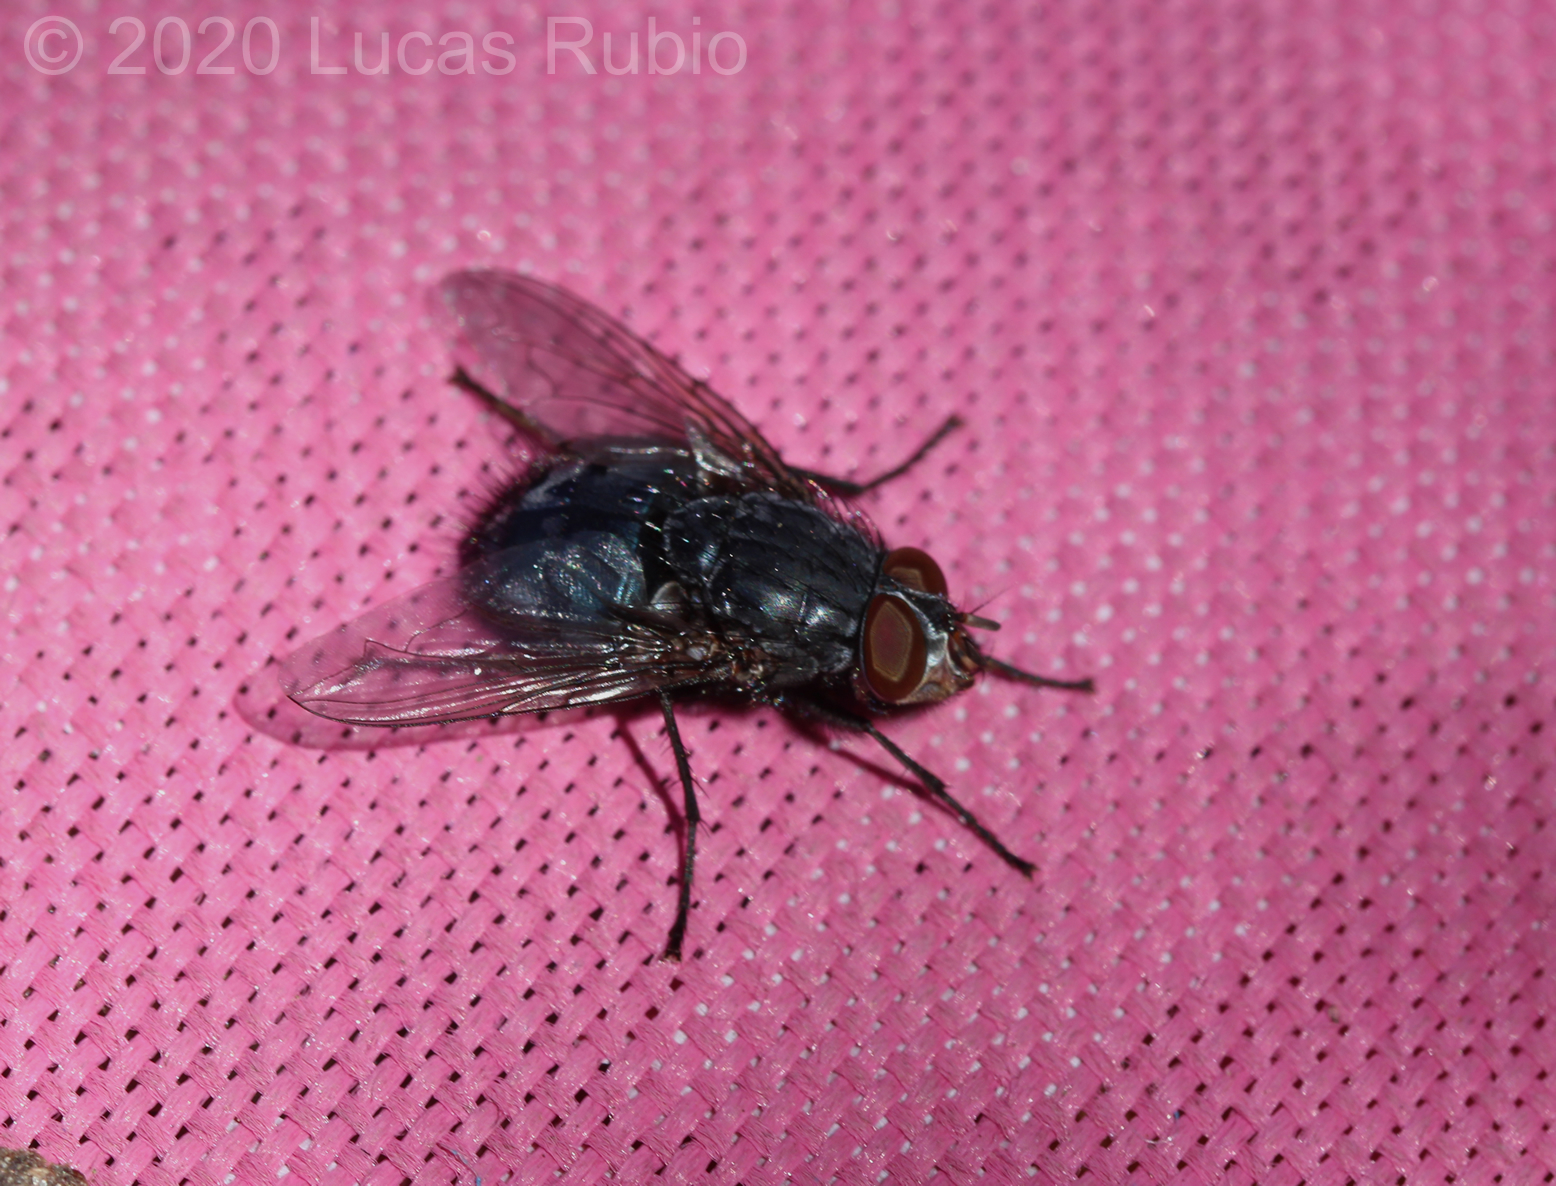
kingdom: Animalia
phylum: Arthropoda
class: Insecta
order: Diptera
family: Calliphoridae
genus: Calliphora
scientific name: Calliphora vicina
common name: Common blow flie
